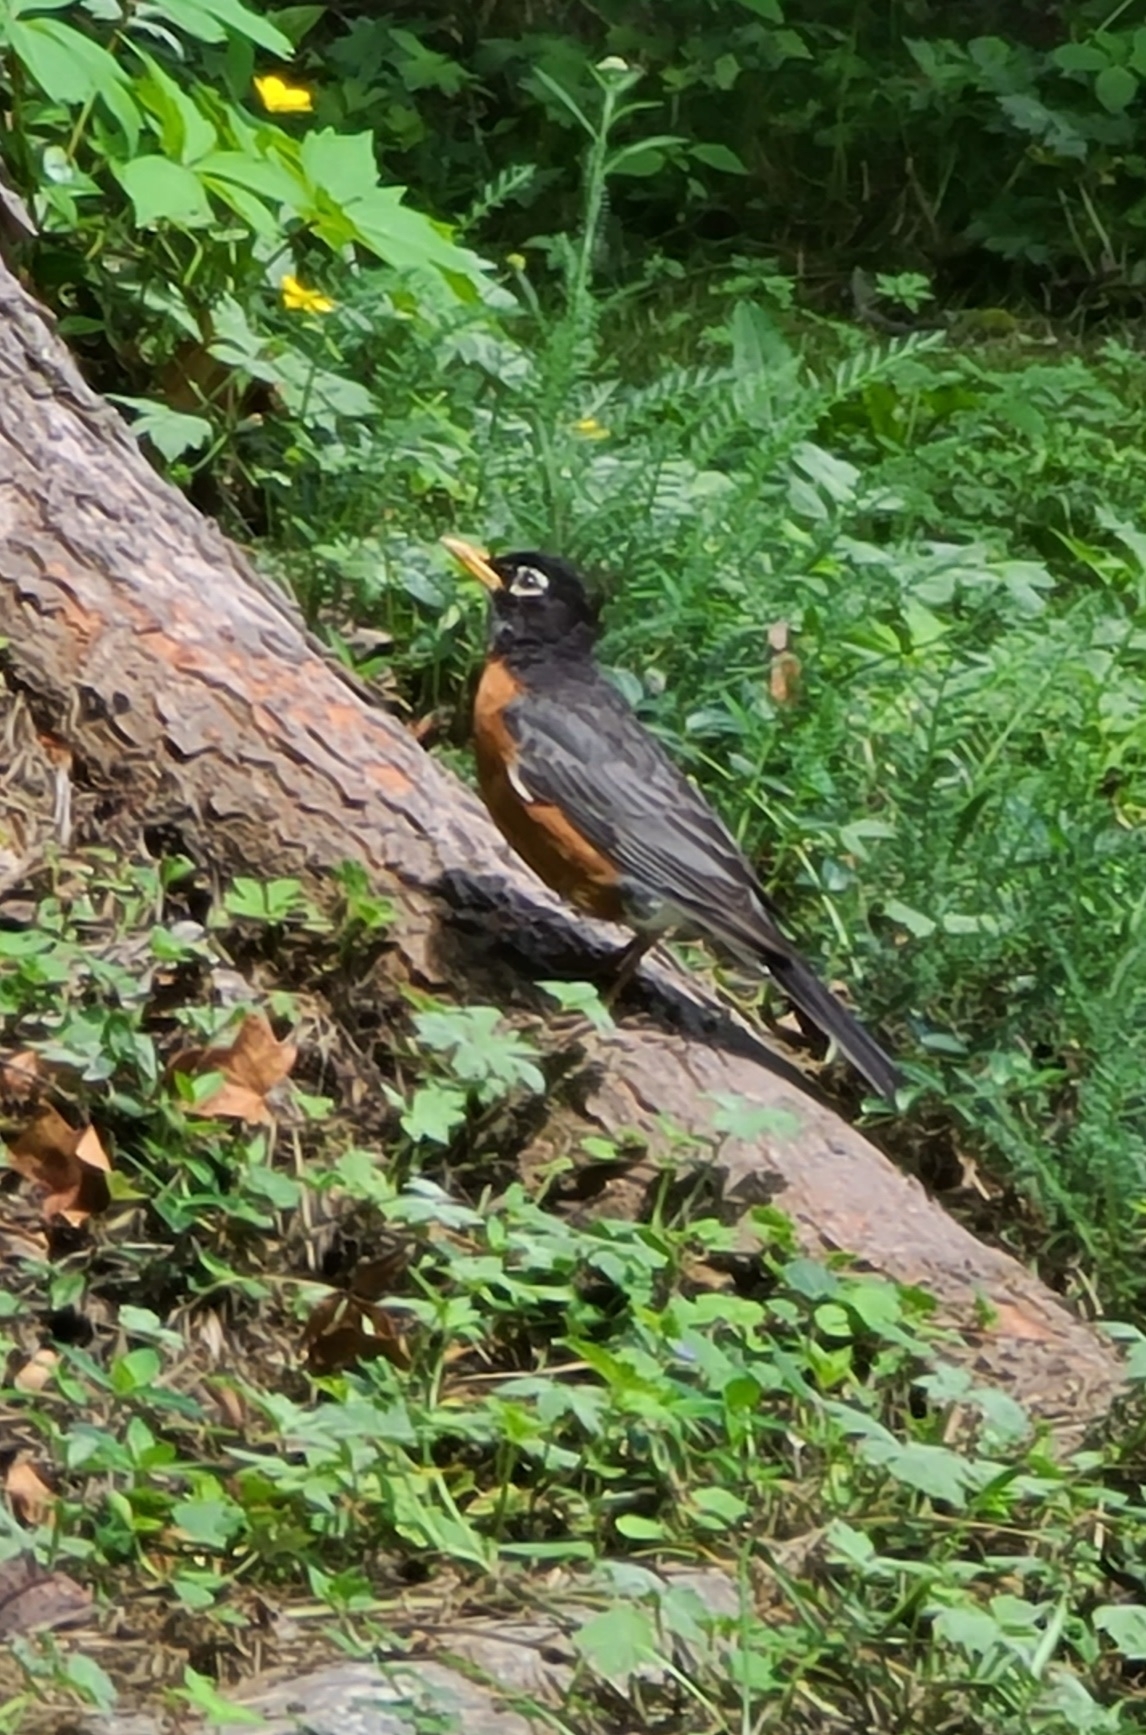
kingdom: Animalia
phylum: Chordata
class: Aves
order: Passeriformes
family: Turdidae
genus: Turdus
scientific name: Turdus migratorius
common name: American robin
